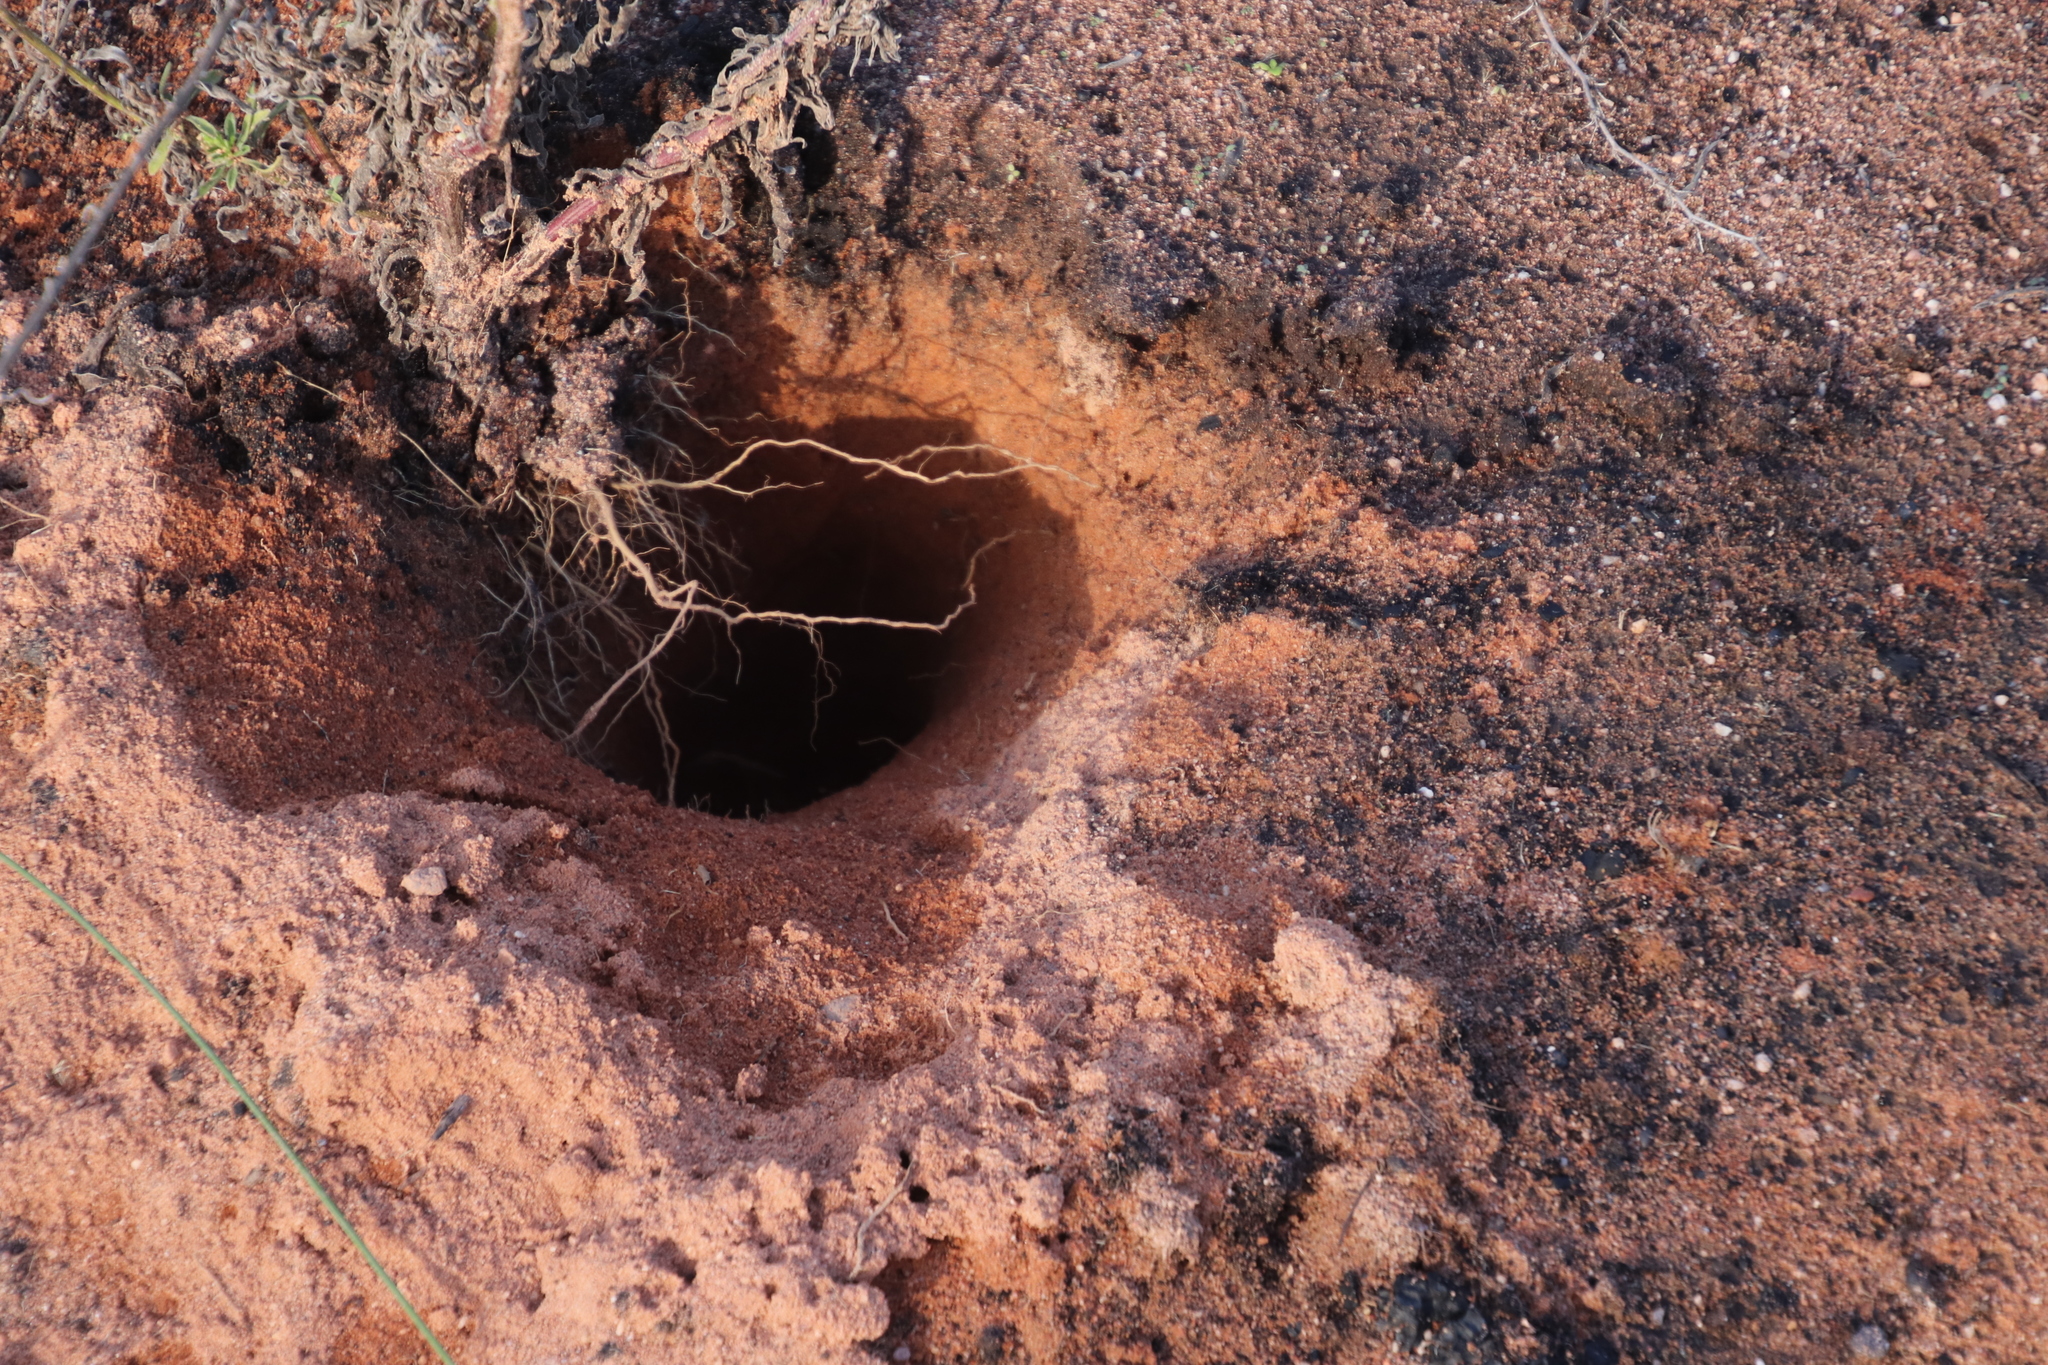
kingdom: Animalia
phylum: Chordata
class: Mammalia
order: Rodentia
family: Hystricidae
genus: Hystrix
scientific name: Hystrix africaeaustralis
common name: Cape porcupine
